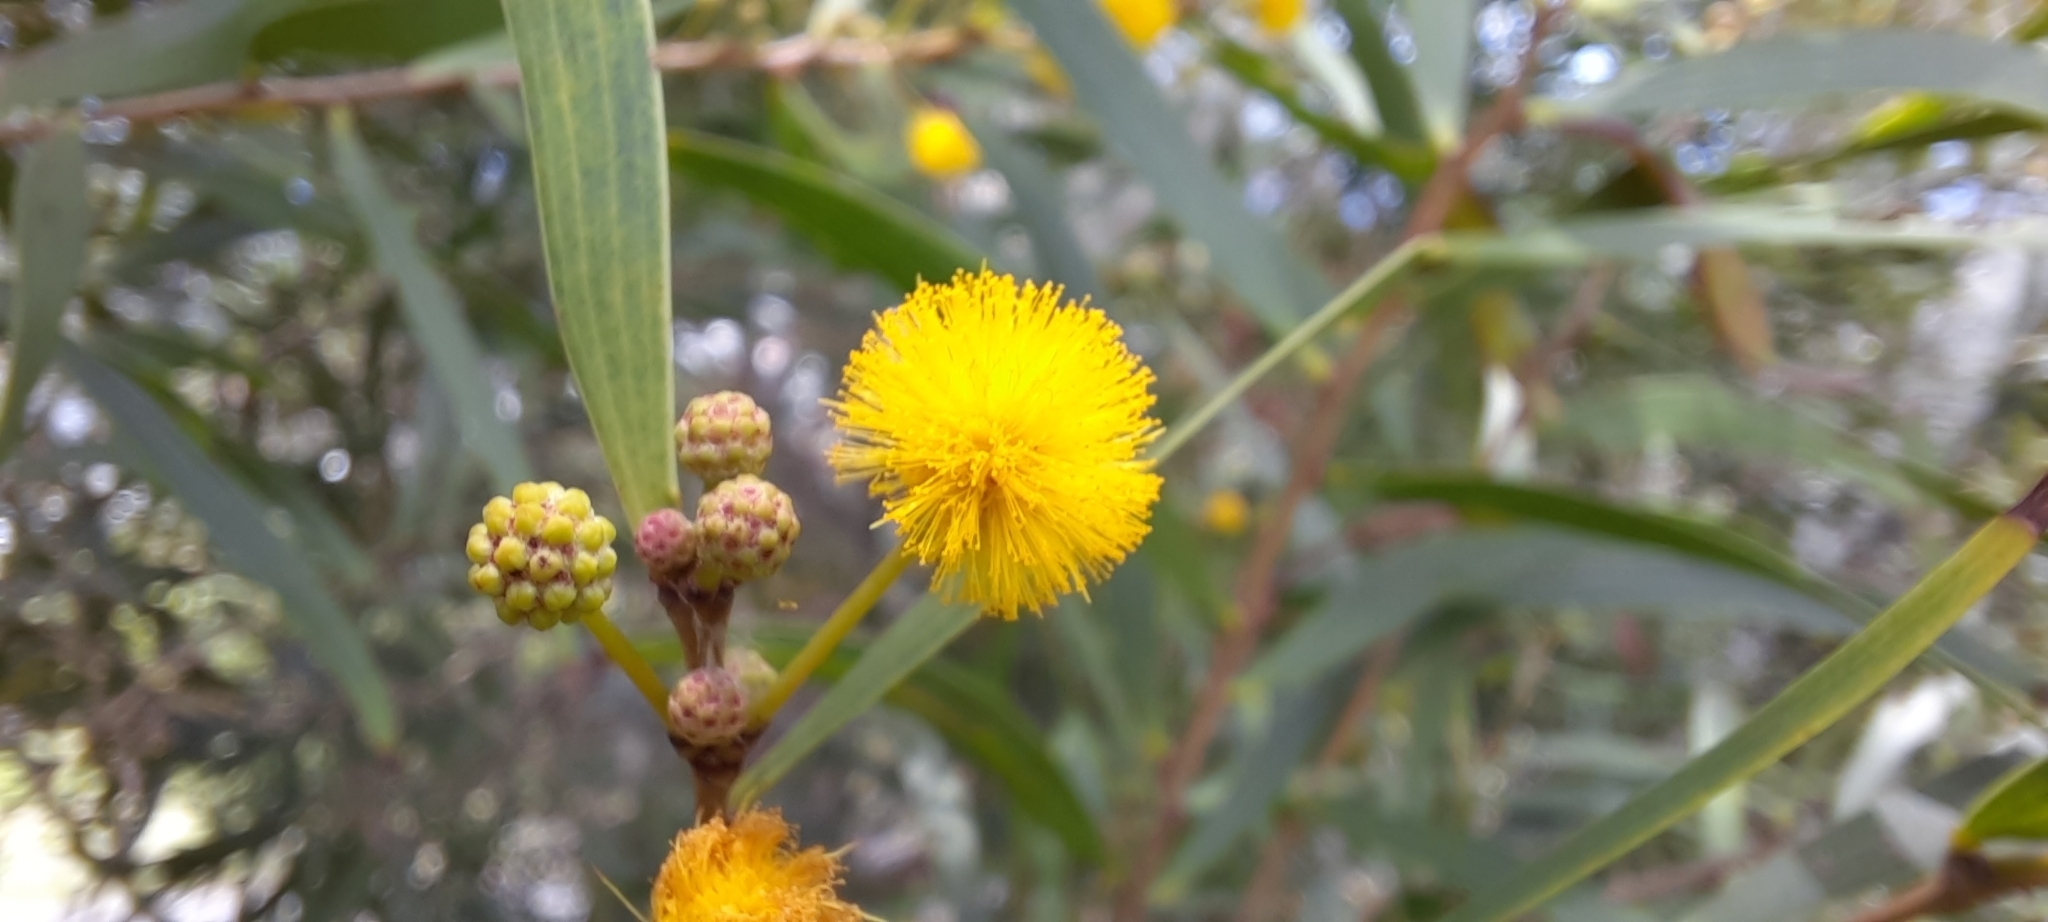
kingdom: Plantae
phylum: Tracheophyta
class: Magnoliopsida
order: Fabales
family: Fabaceae
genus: Acacia
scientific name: Acacia confusa
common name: Formosan koa
